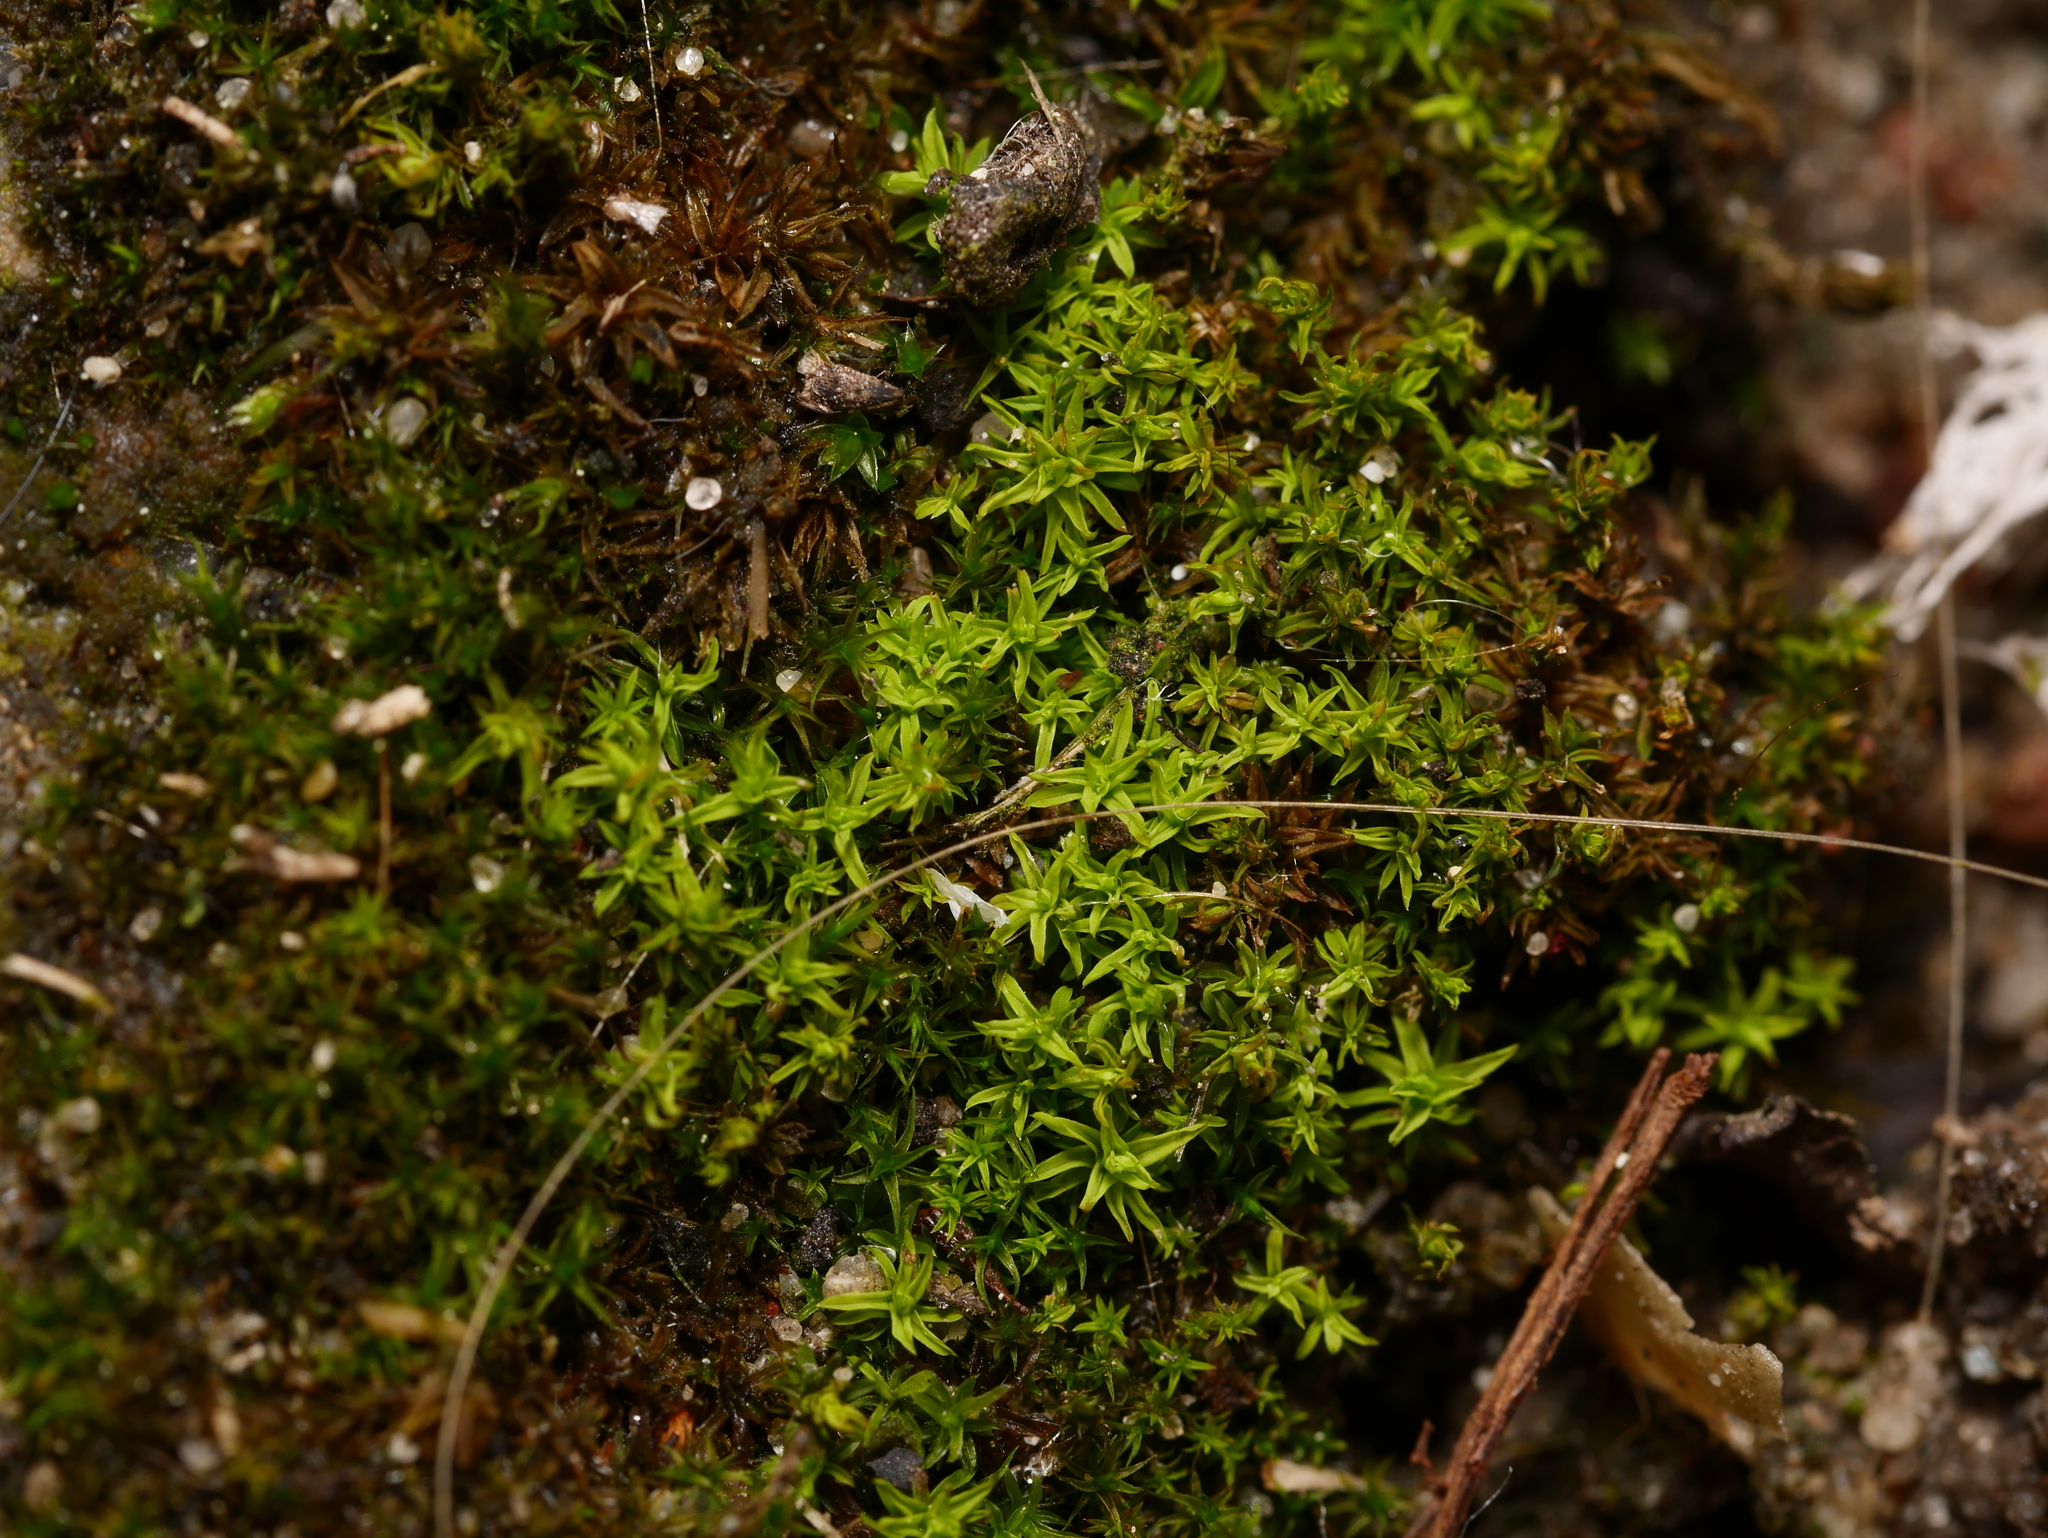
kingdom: Plantae
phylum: Bryophyta
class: Bryopsida
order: Pottiales
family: Pottiaceae
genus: Barbula
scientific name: Barbula unguiculata
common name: Prickly beard moss
